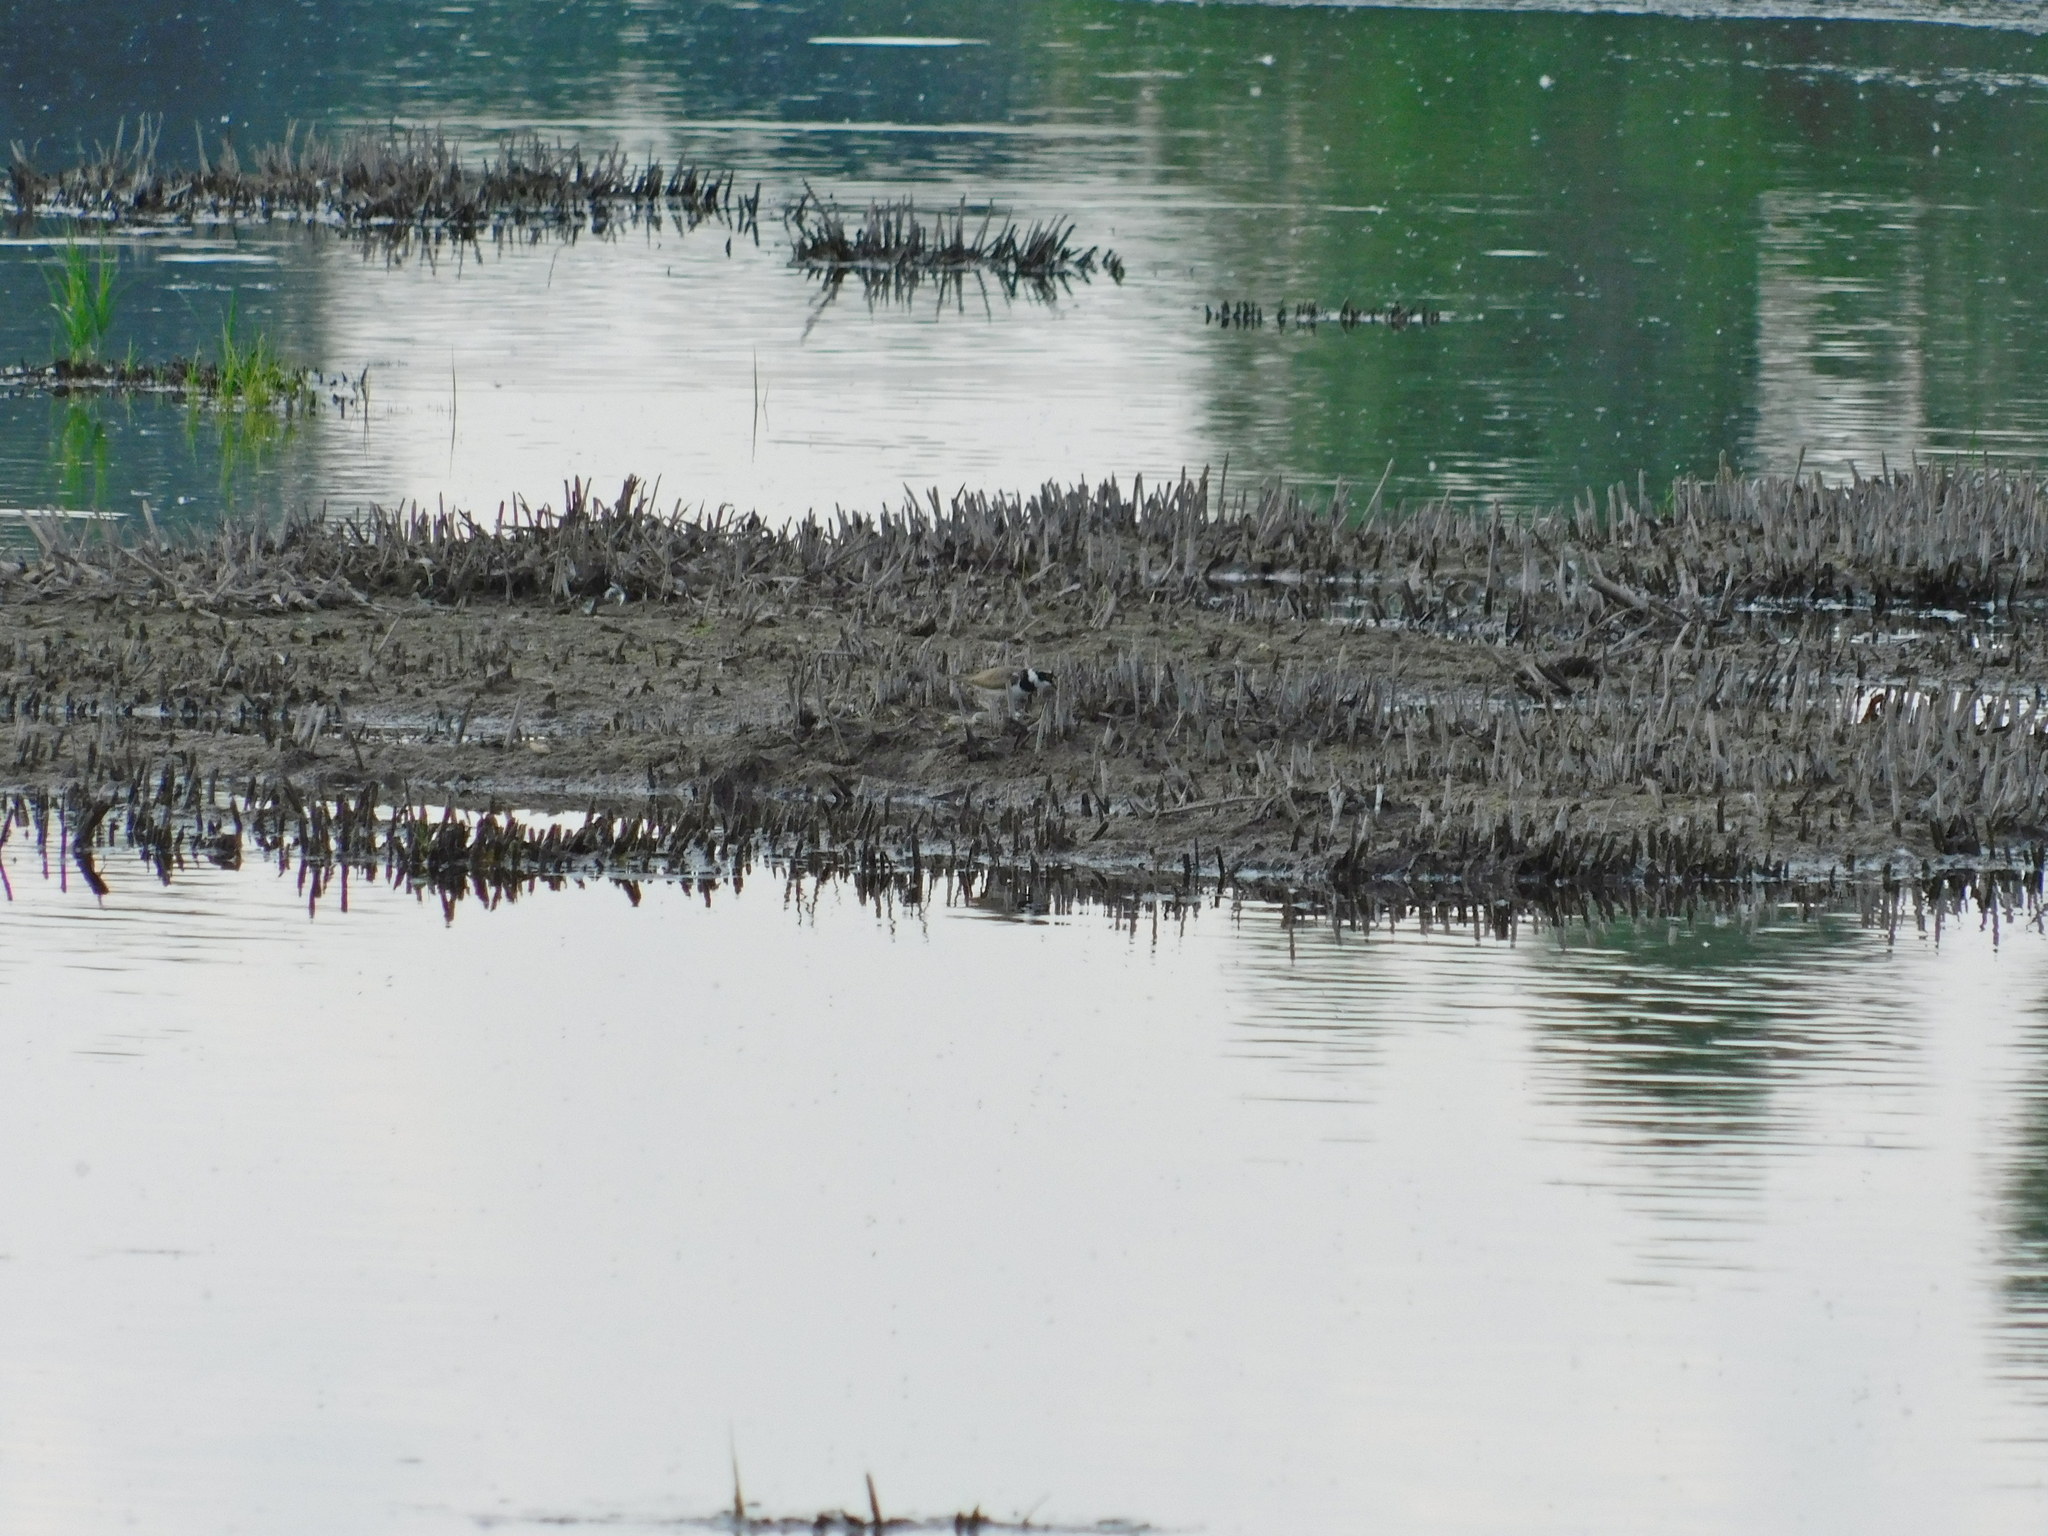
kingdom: Animalia
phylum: Chordata
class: Aves
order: Charadriiformes
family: Charadriidae
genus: Charadrius
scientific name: Charadrius dubius
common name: Little ringed plover
